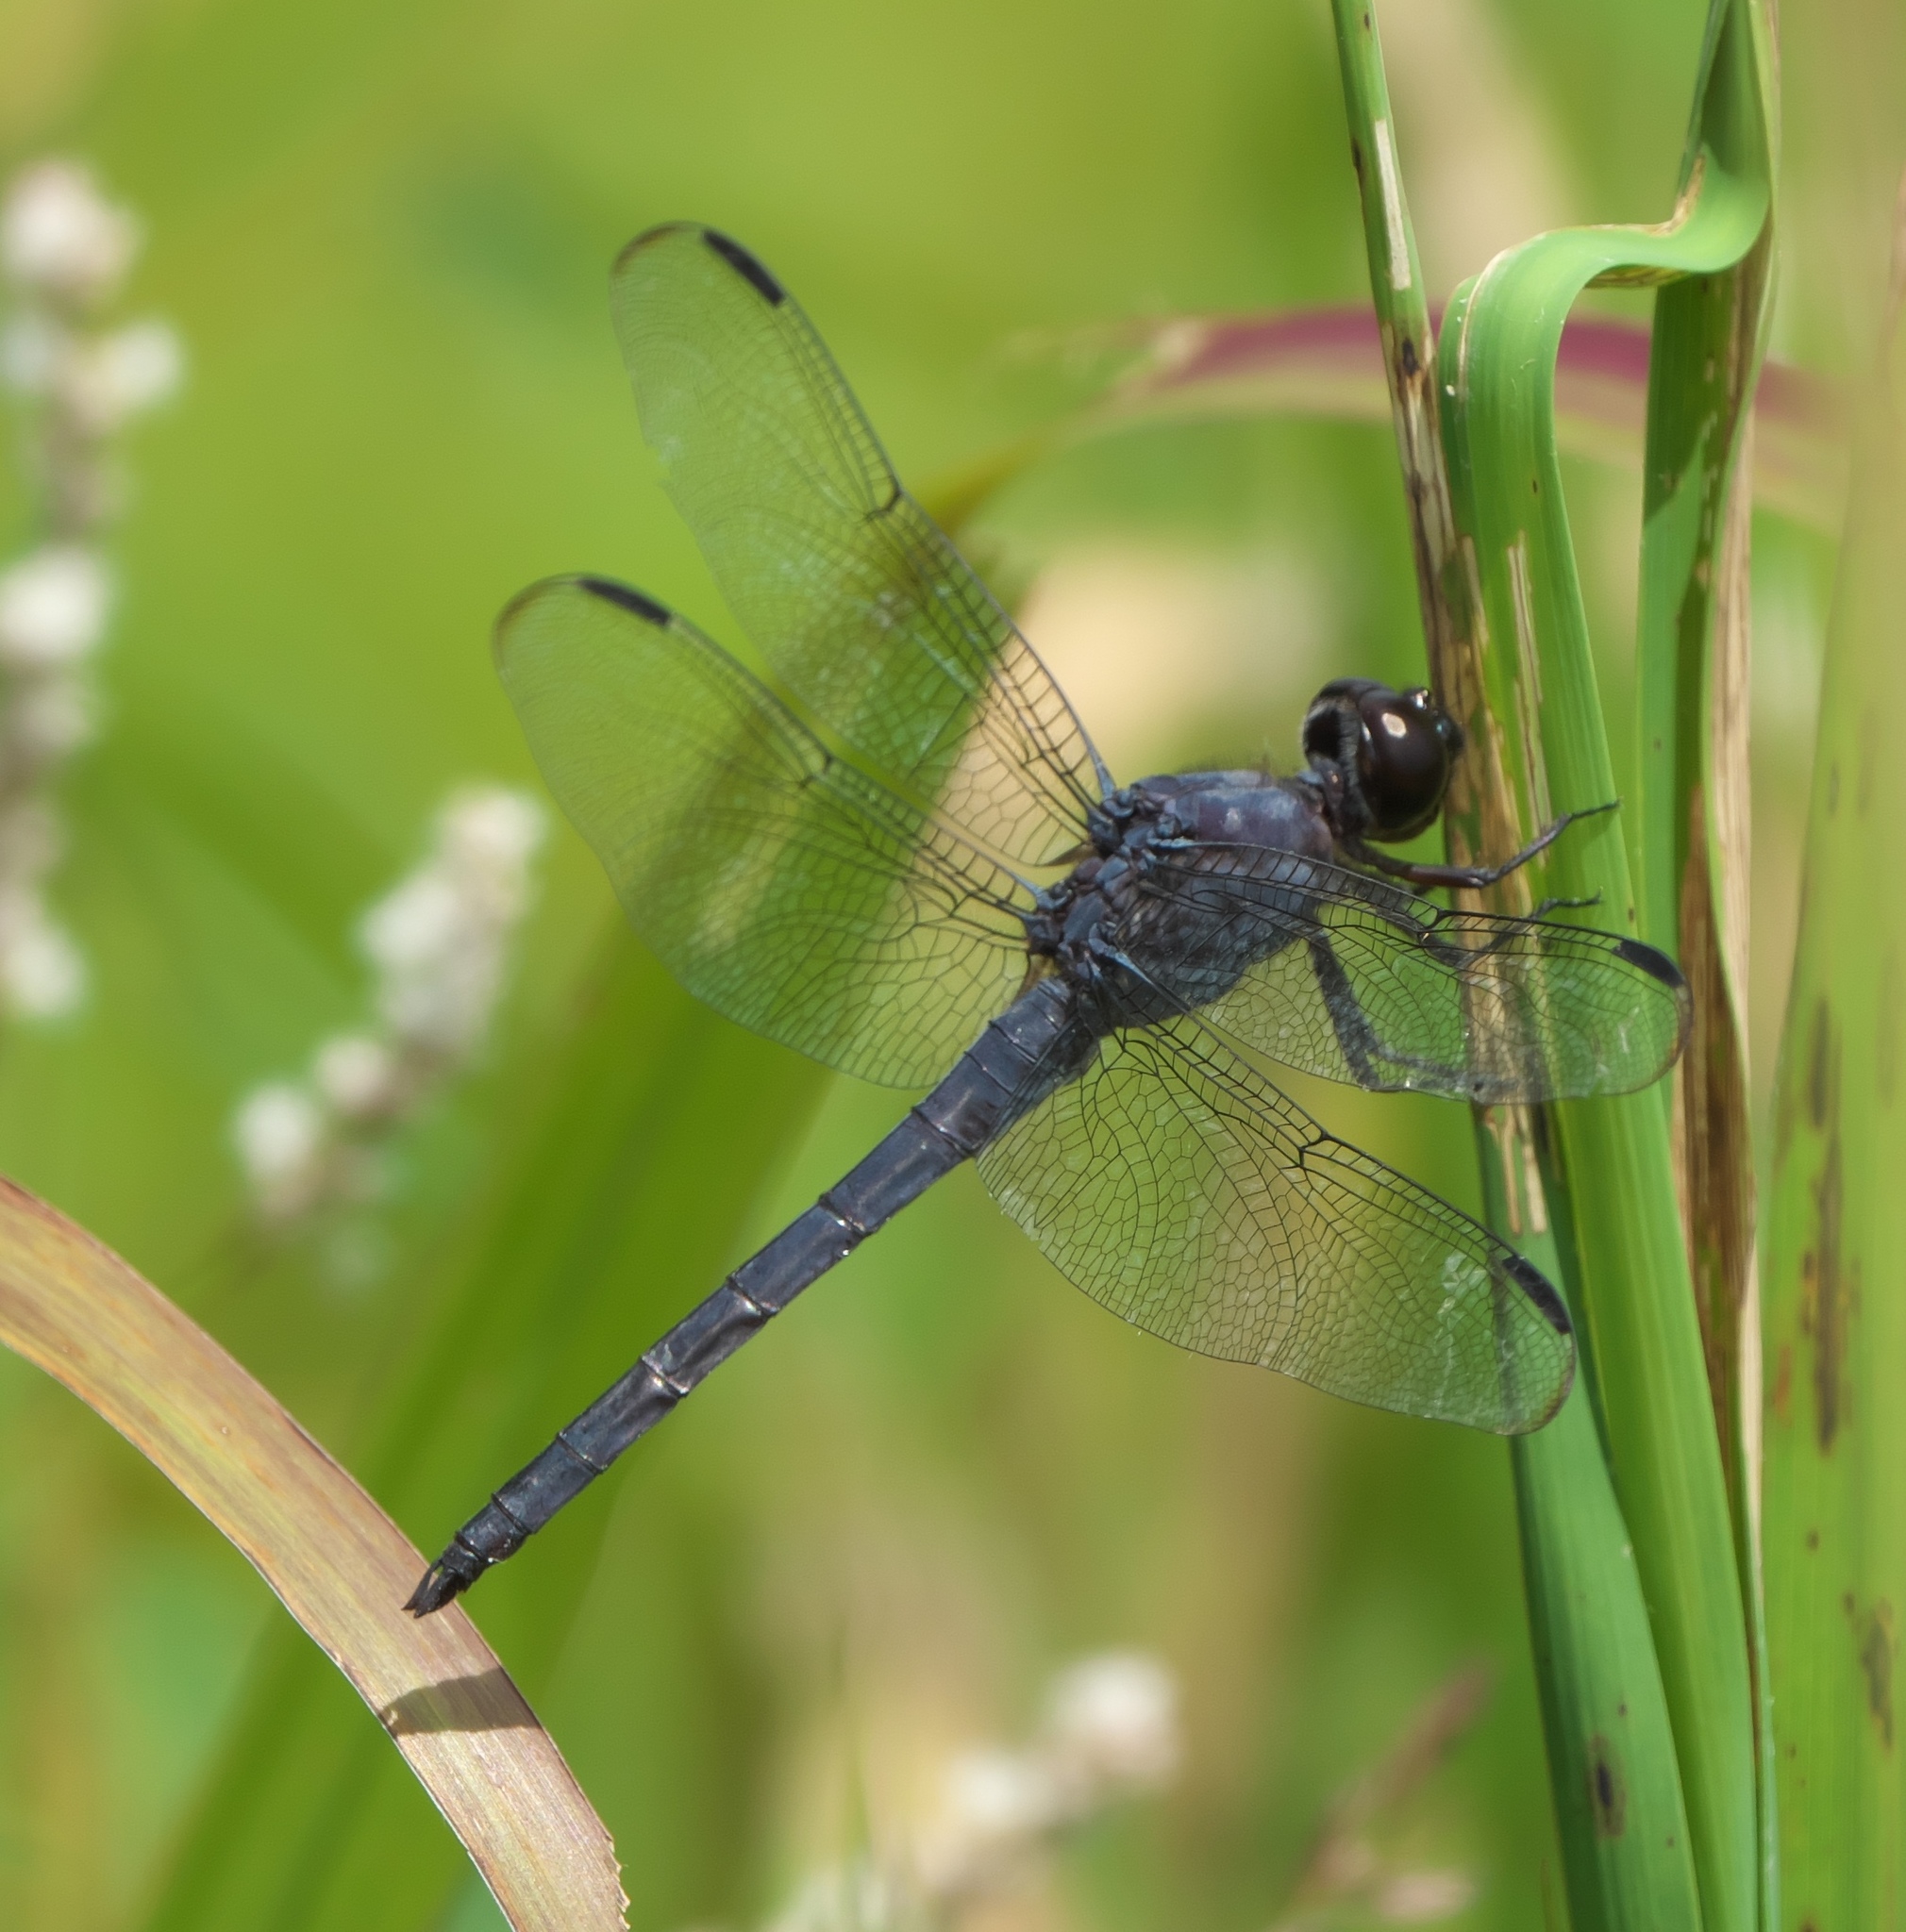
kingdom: Animalia
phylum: Arthropoda
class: Insecta
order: Odonata
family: Libellulidae
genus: Libellula
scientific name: Libellula incesta
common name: Slaty skimmer
